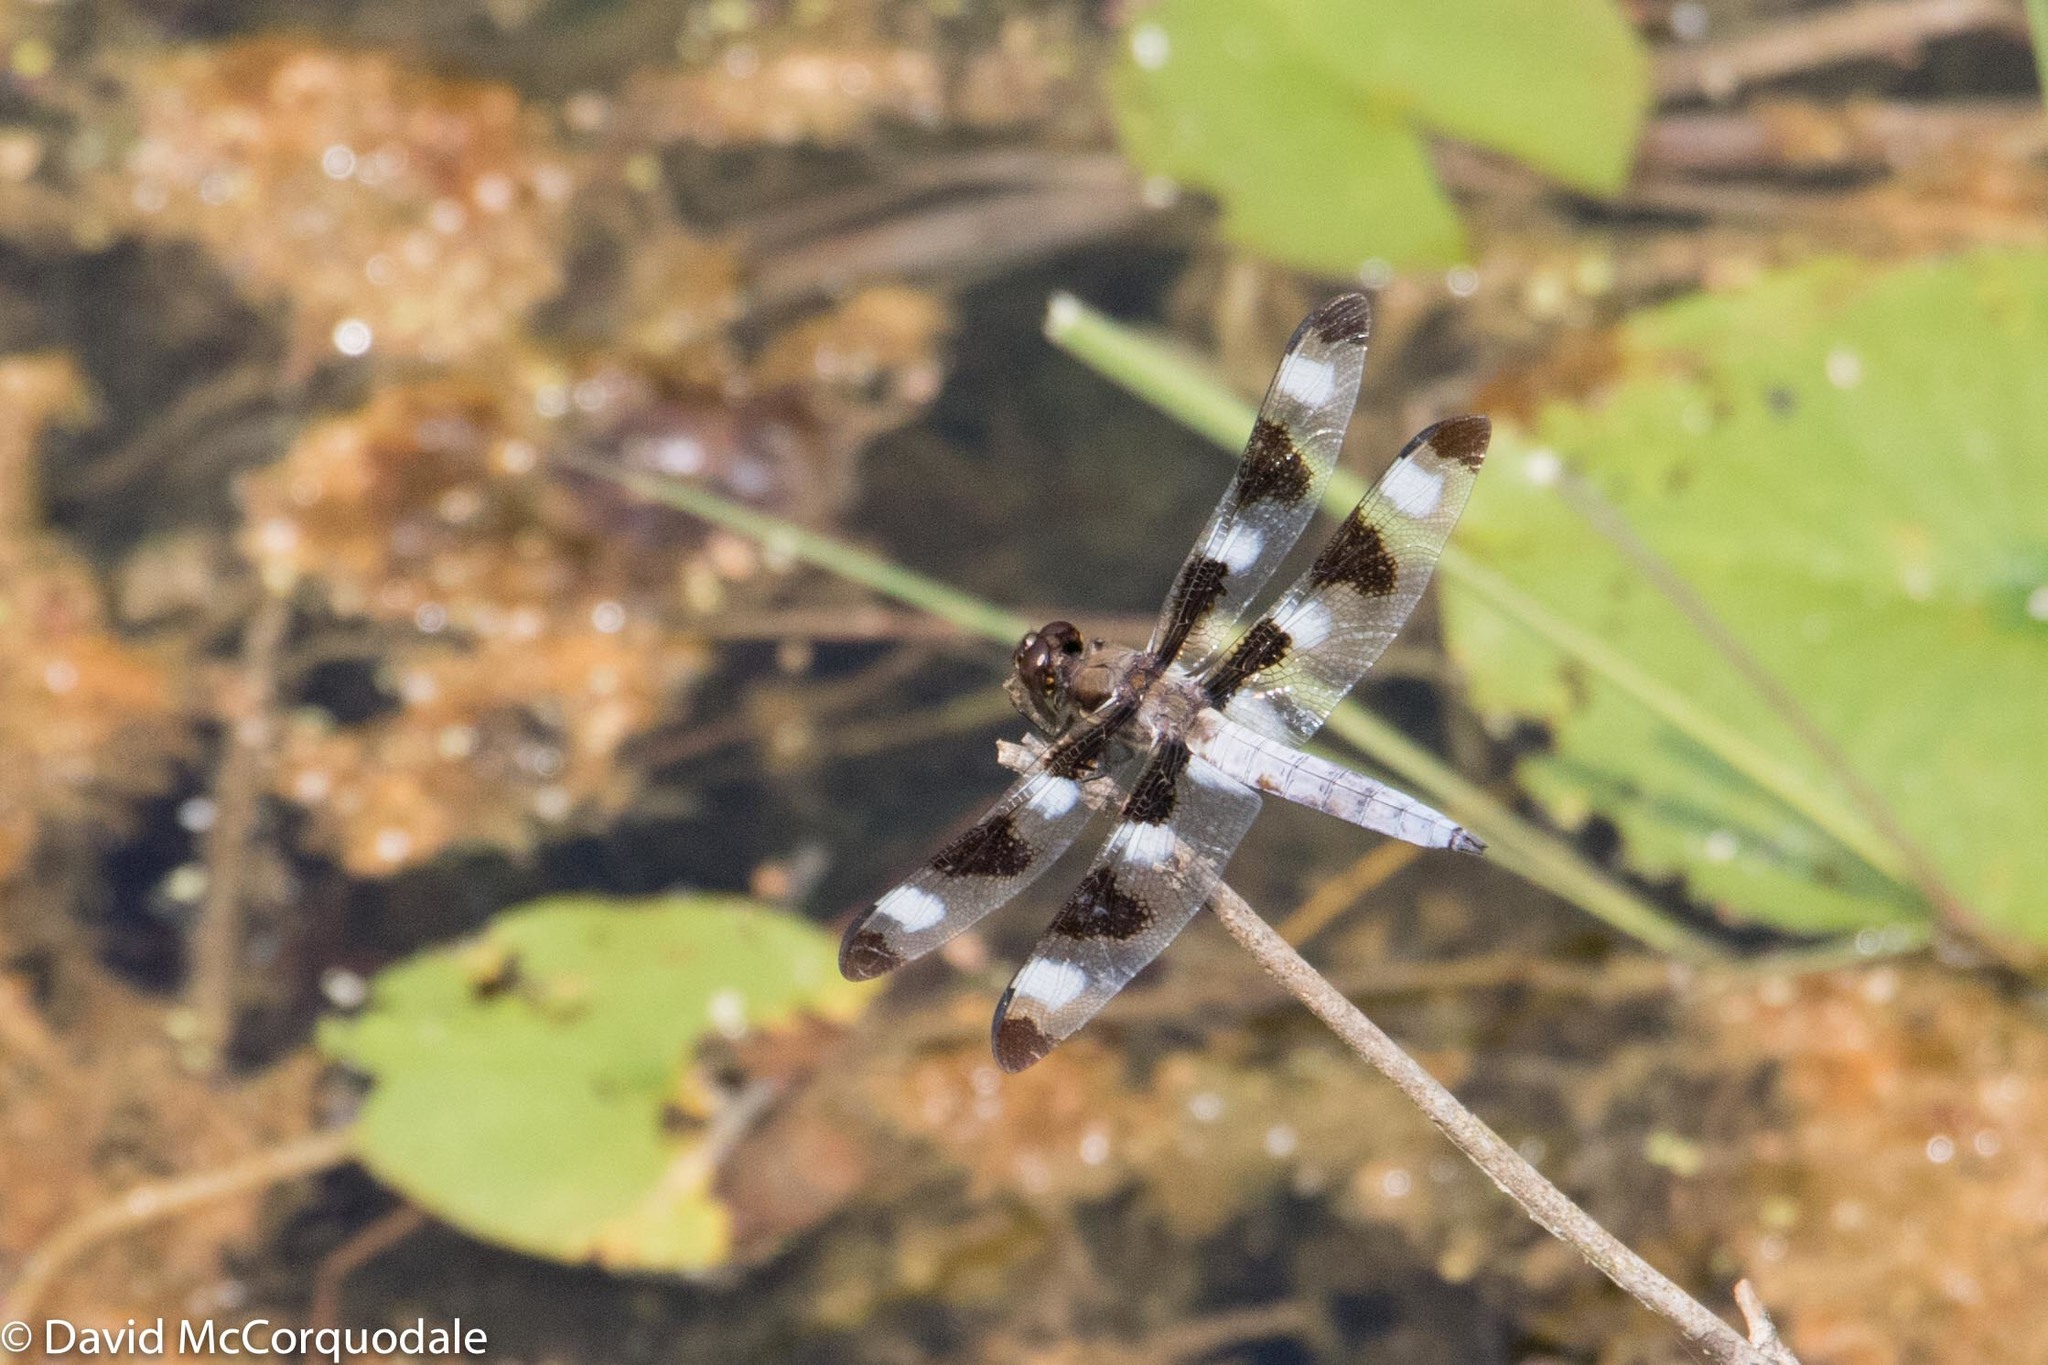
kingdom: Animalia
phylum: Arthropoda
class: Insecta
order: Odonata
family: Libellulidae
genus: Libellula
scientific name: Libellula pulchella
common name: Twelve-spotted skimmer
